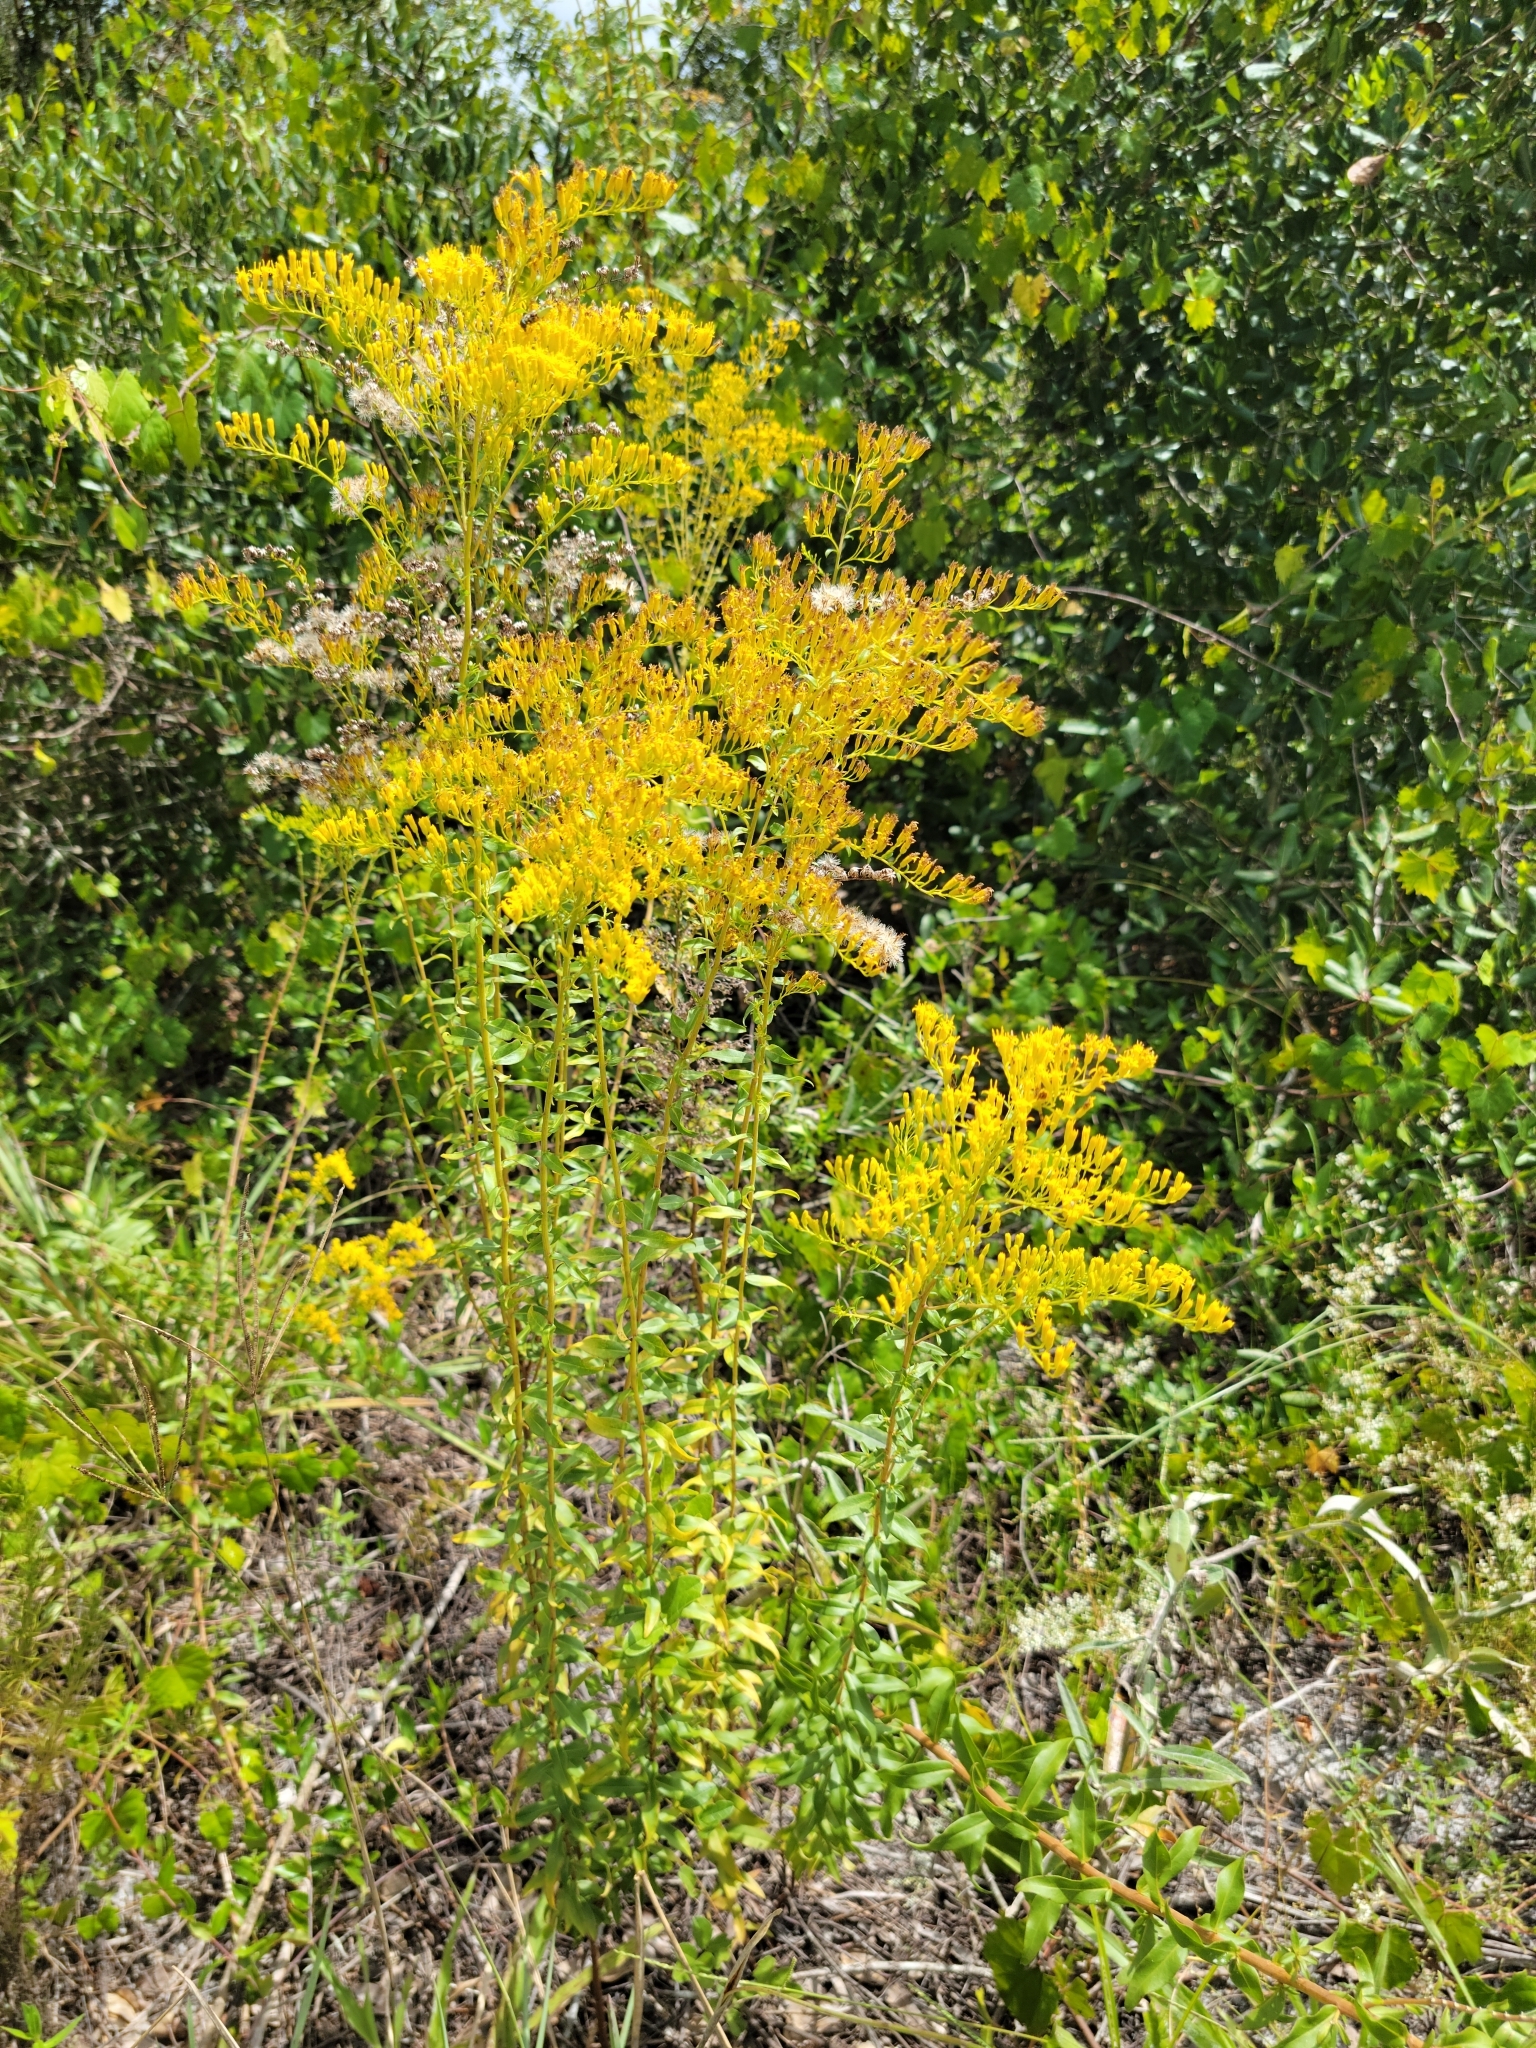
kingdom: Plantae
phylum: Tracheophyta
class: Magnoliopsida
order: Asterales
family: Asteraceae
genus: Solidago
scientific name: Solidago chapmanii
